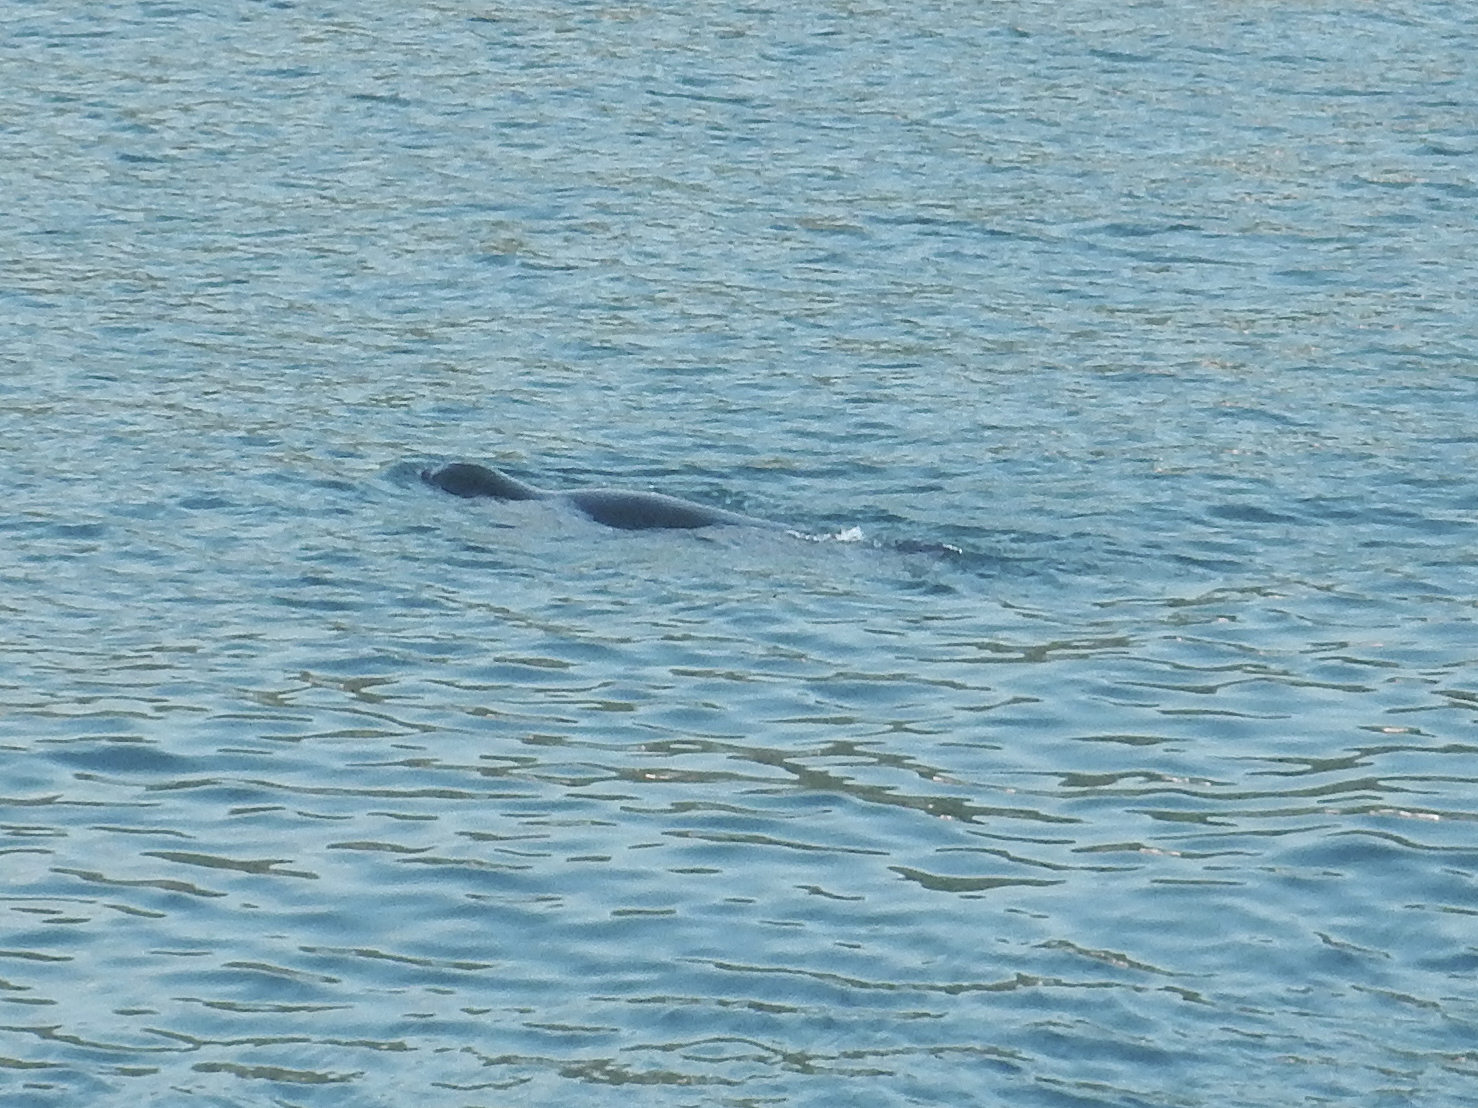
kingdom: Animalia
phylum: Chordata
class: Mammalia
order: Carnivora
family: Phocidae
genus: Monachus
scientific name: Monachus monachus
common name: Mediterranean monk seal
